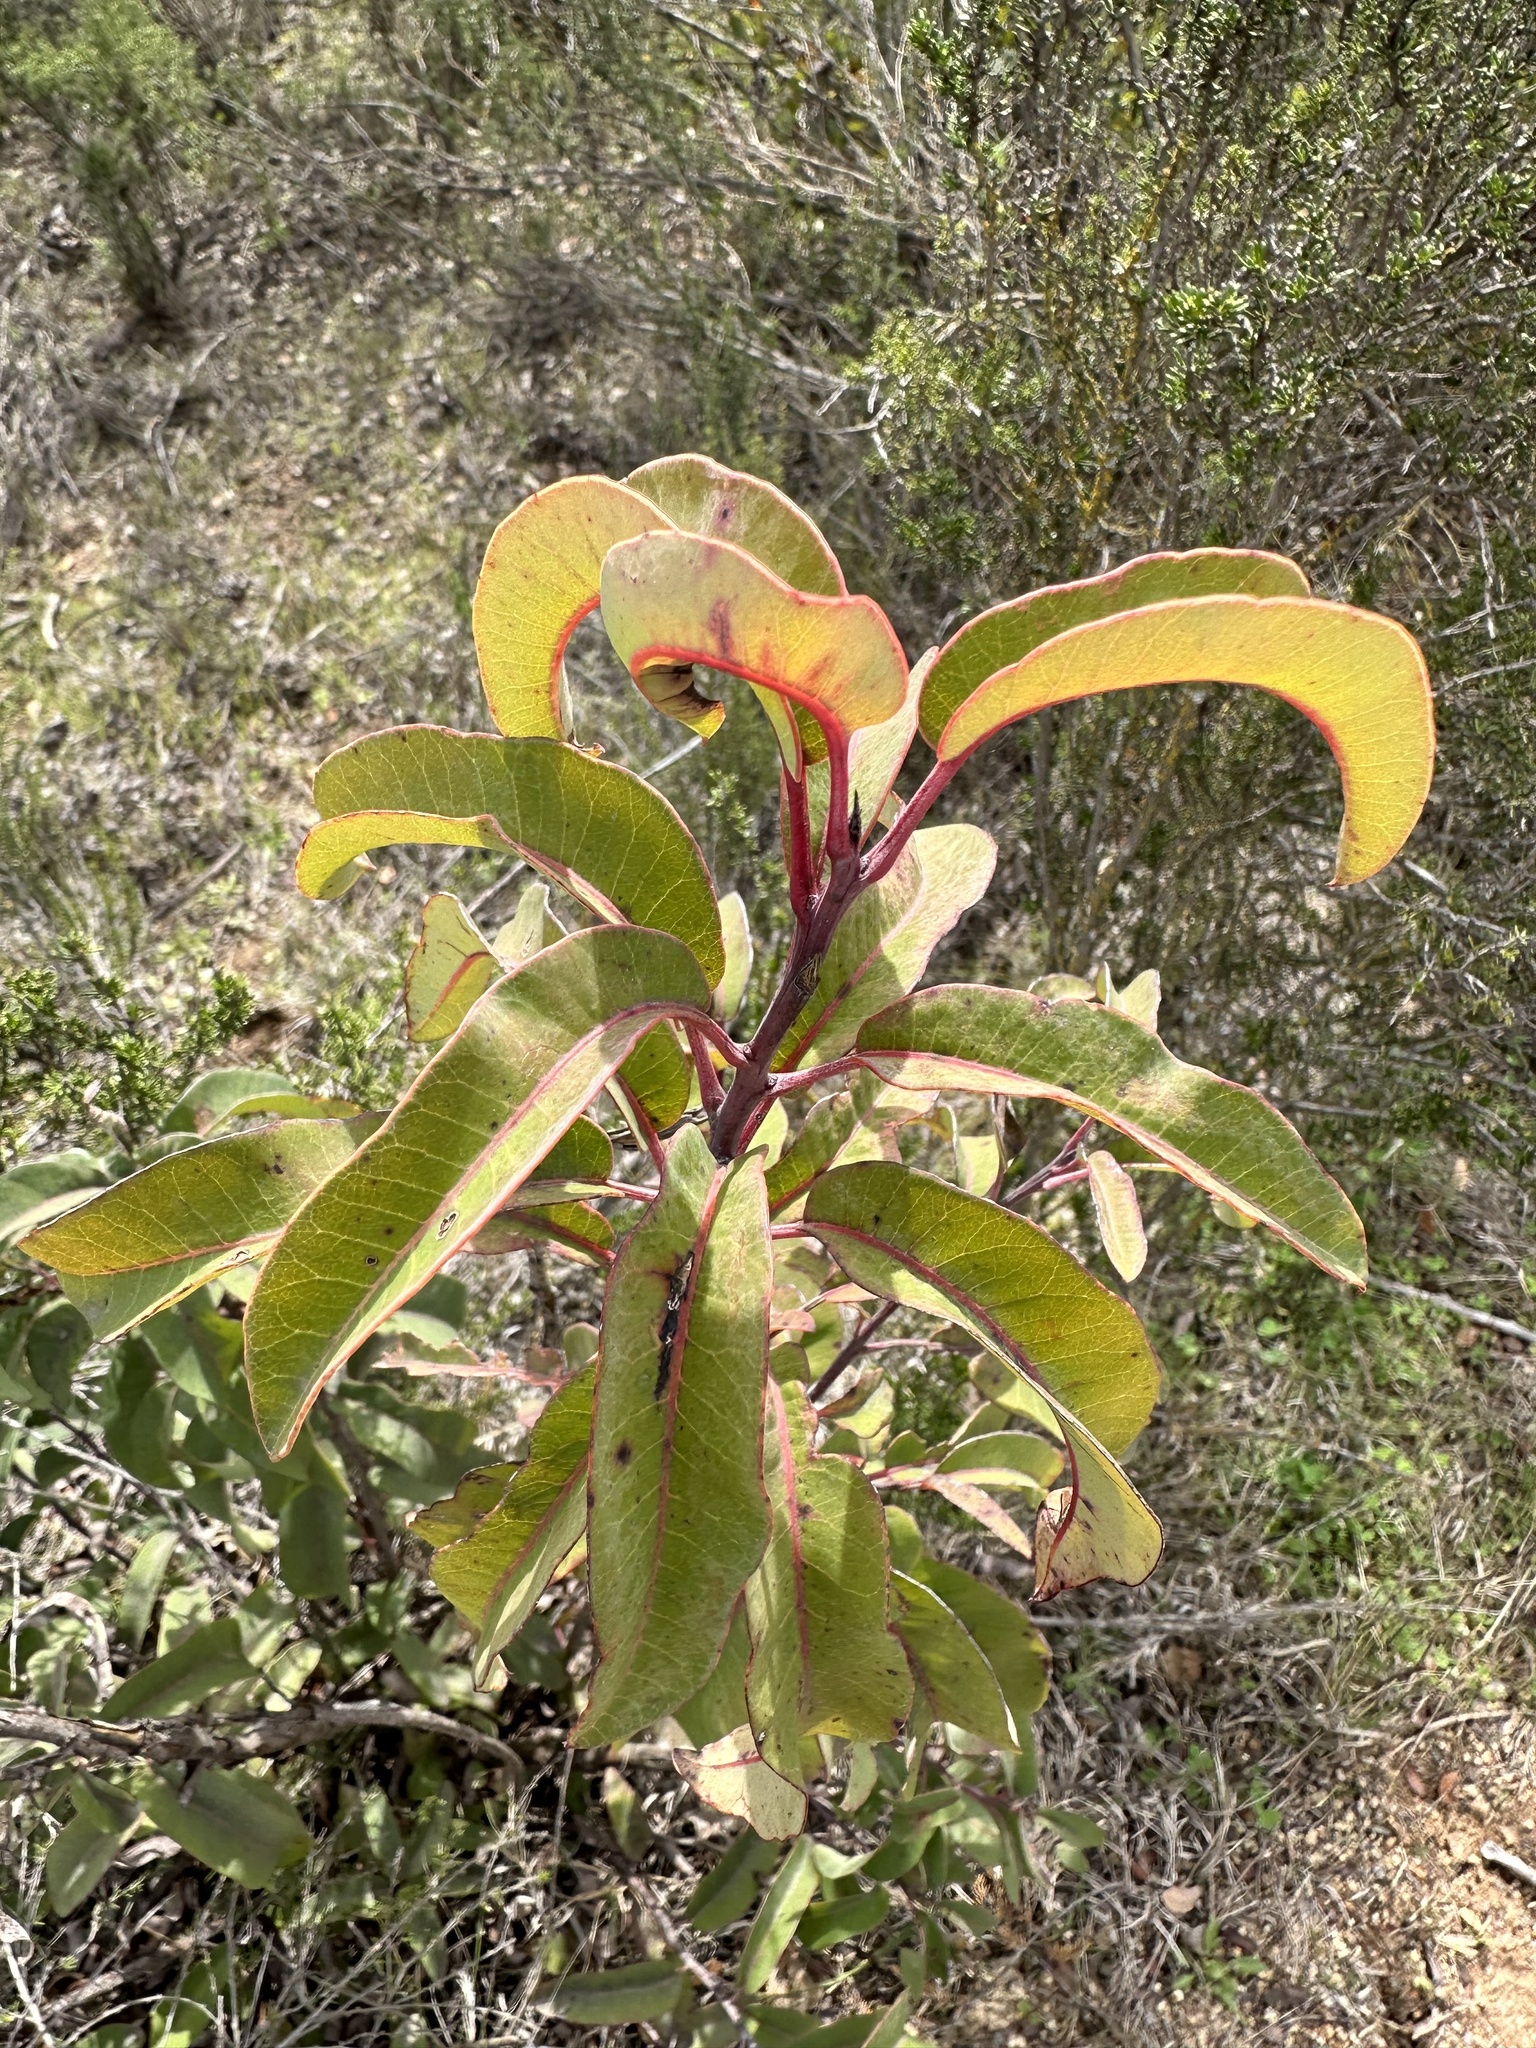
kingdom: Plantae
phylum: Tracheophyta
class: Magnoliopsida
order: Sapindales
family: Anacardiaceae
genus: Malosma
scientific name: Malosma laurina
